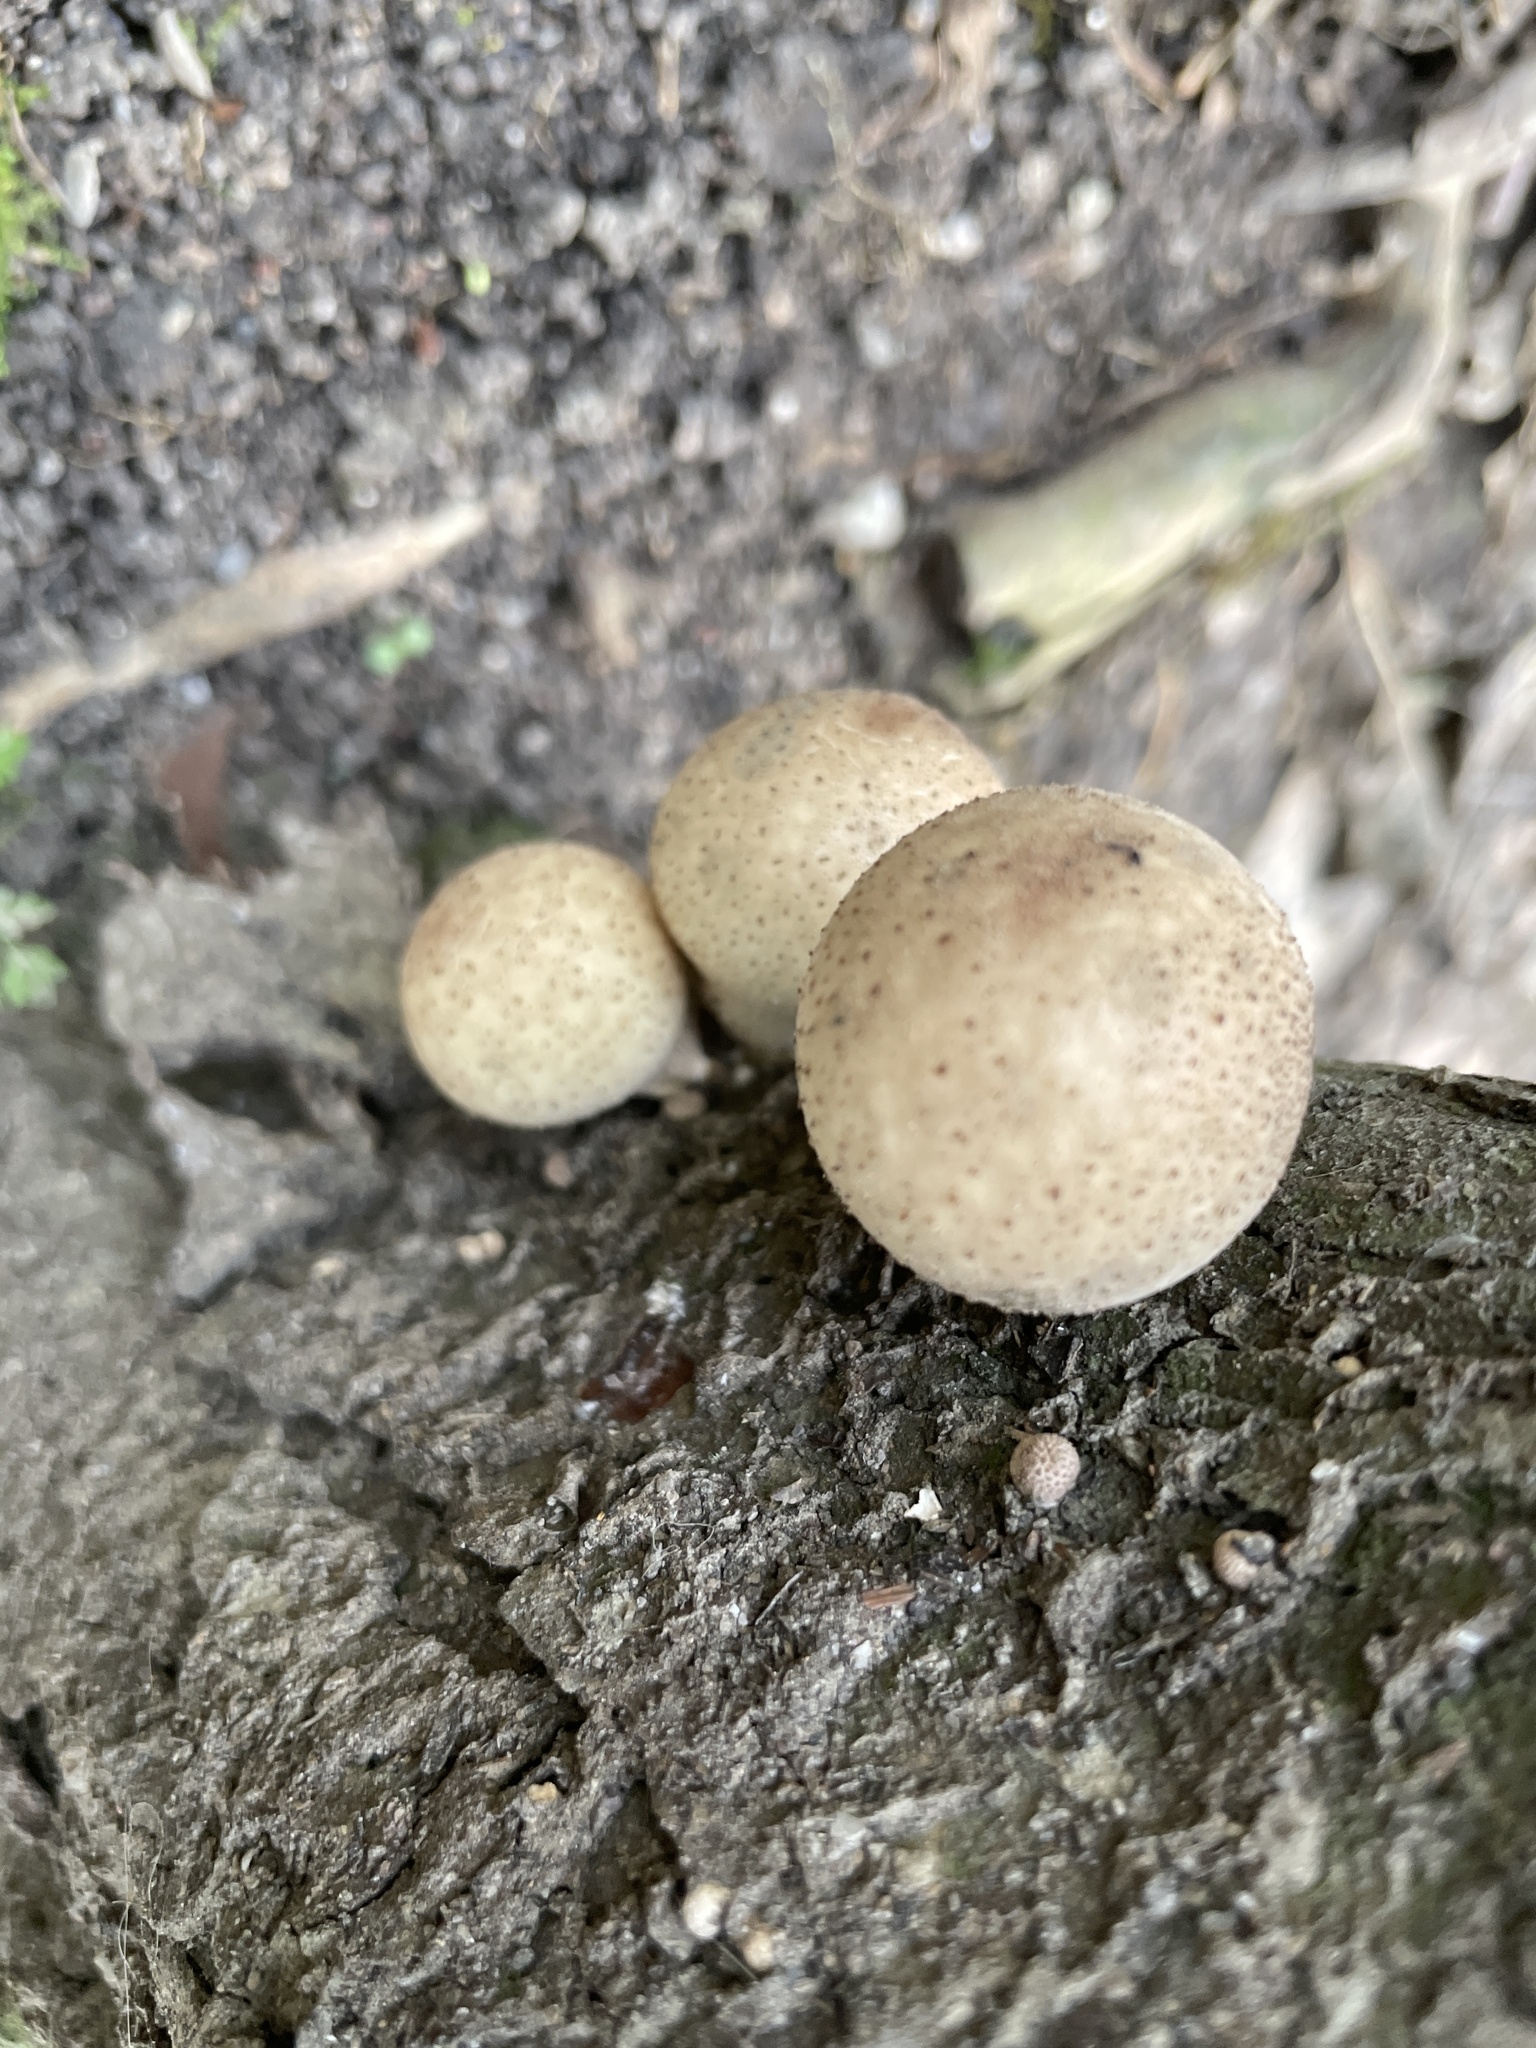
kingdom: Fungi
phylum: Basidiomycota
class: Agaricomycetes
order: Agaricales
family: Lycoperdaceae
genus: Apioperdon
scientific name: Apioperdon pyriforme
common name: Pear-shaped puffball
